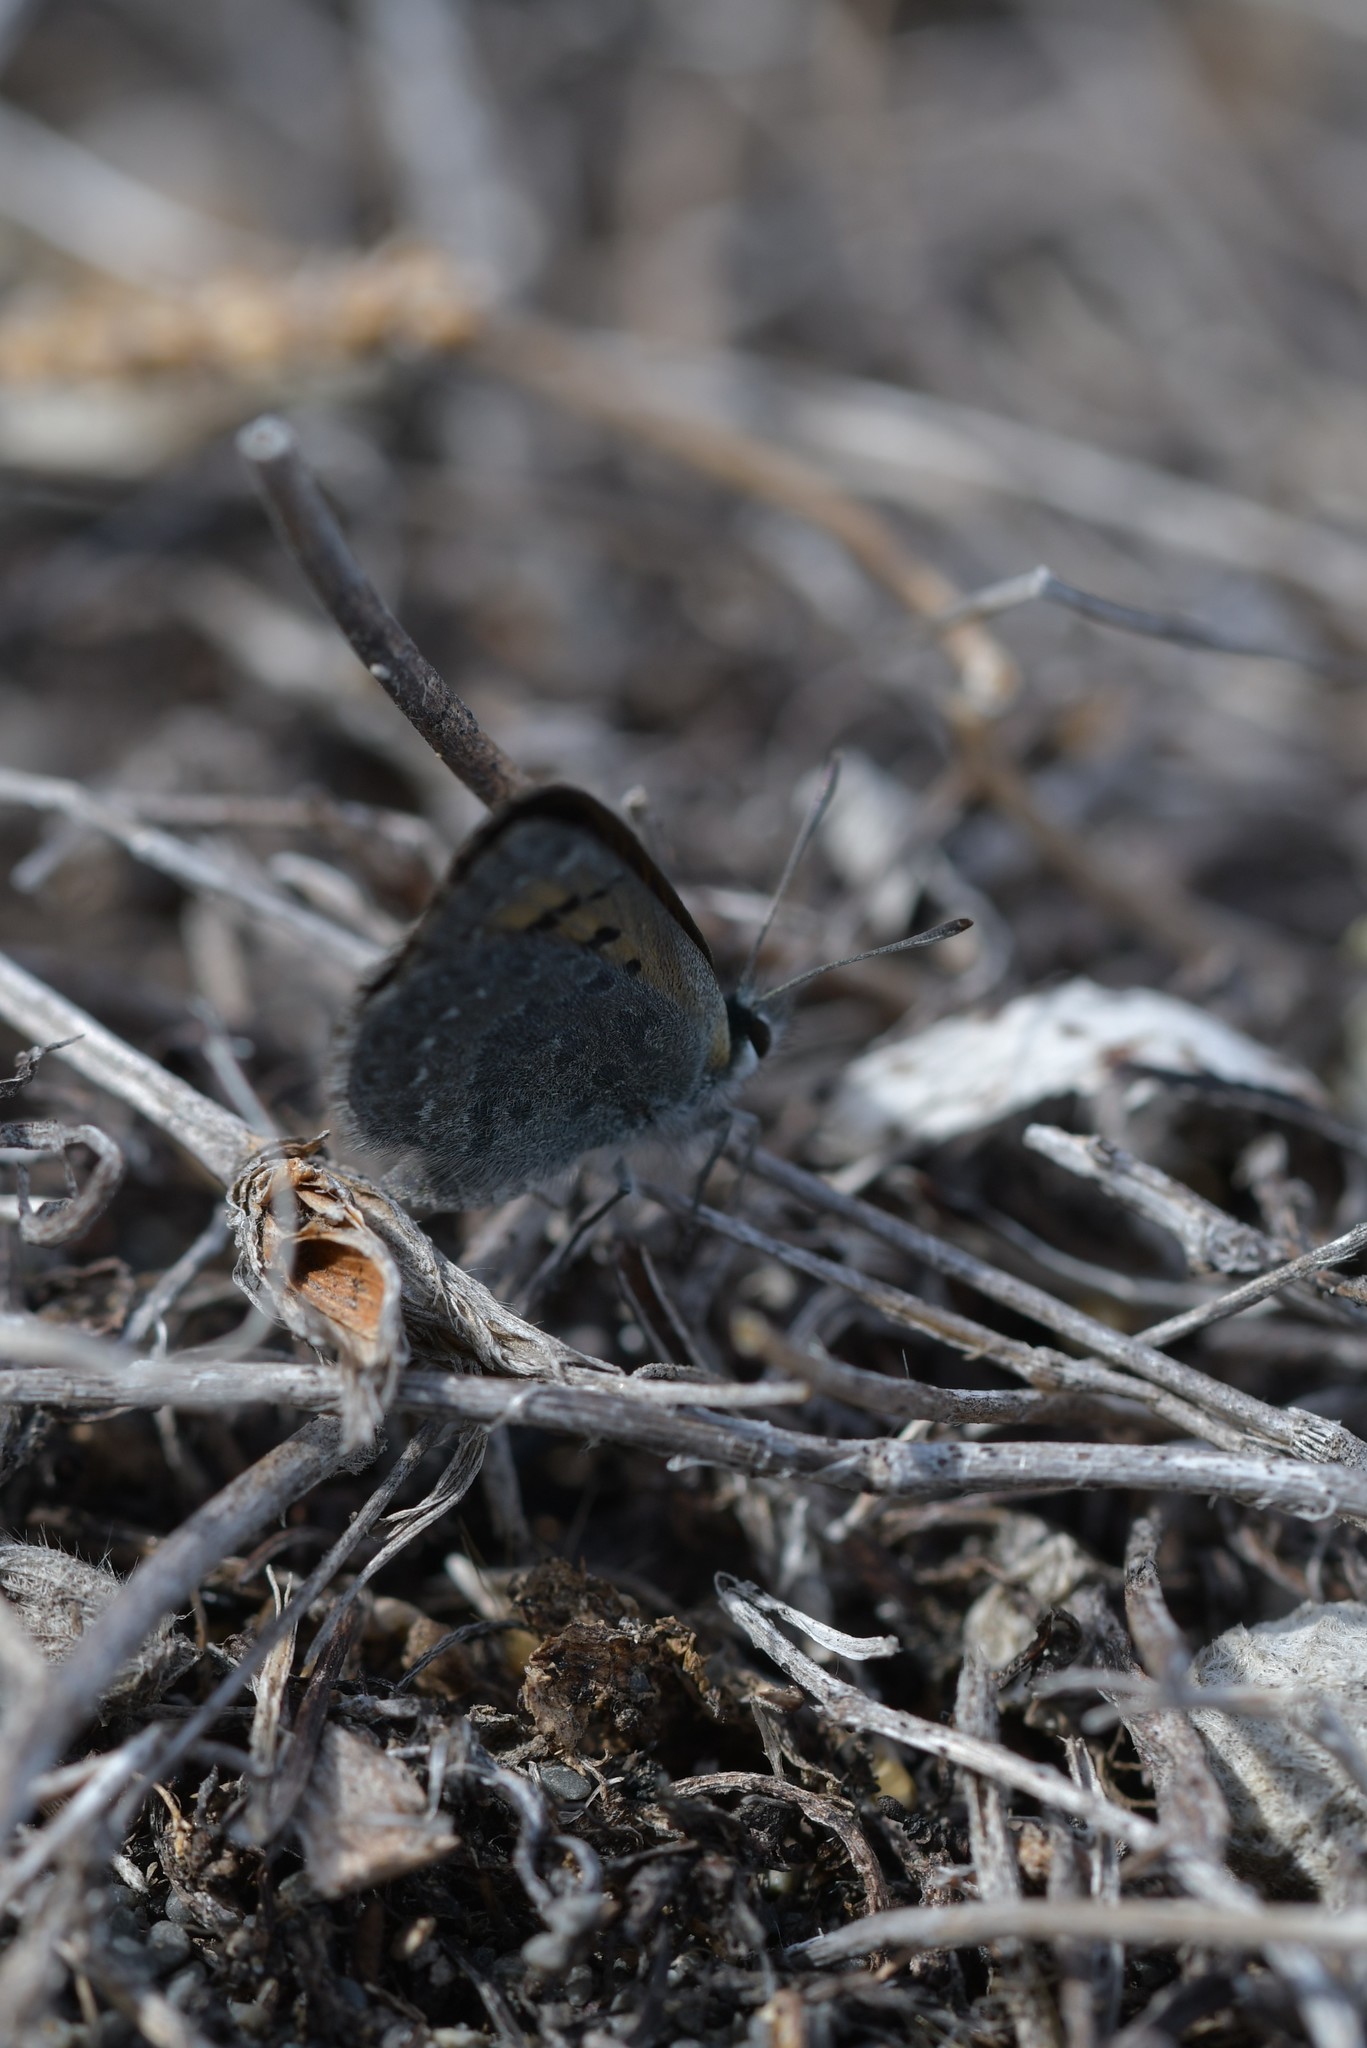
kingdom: Animalia
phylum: Arthropoda
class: Insecta
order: Lepidoptera
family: Lycaenidae
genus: Lycaena
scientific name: Lycaena boldenarum
